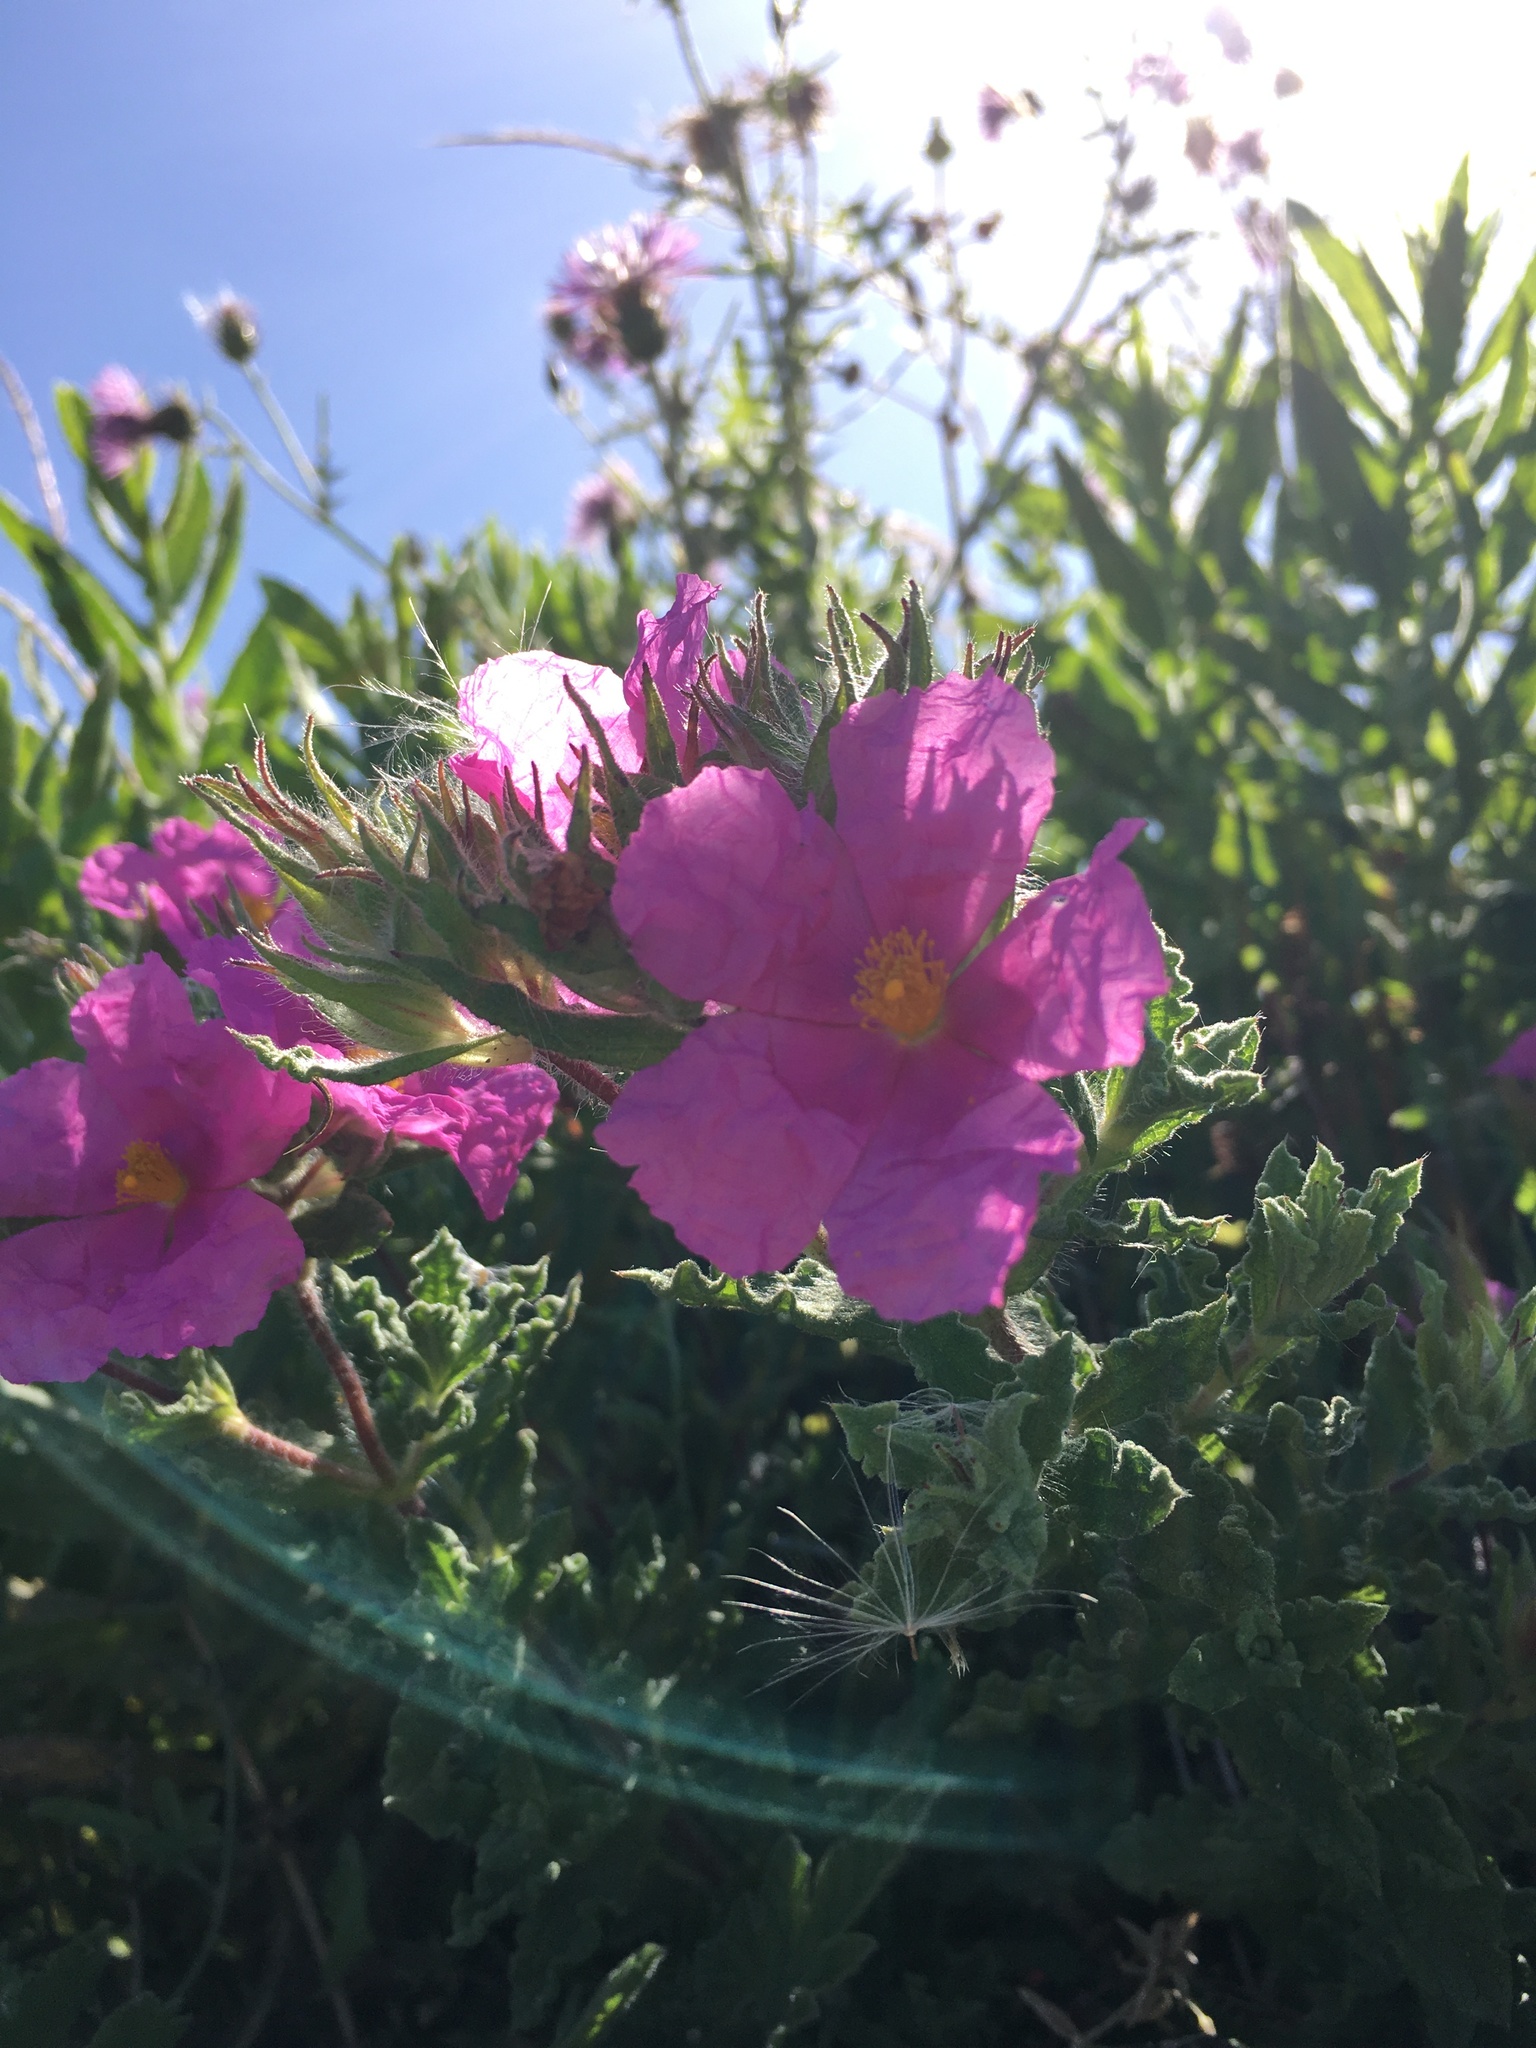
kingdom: Plantae
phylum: Tracheophyta
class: Magnoliopsida
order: Malvales
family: Cistaceae
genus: Cistus
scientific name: Cistus crispus
